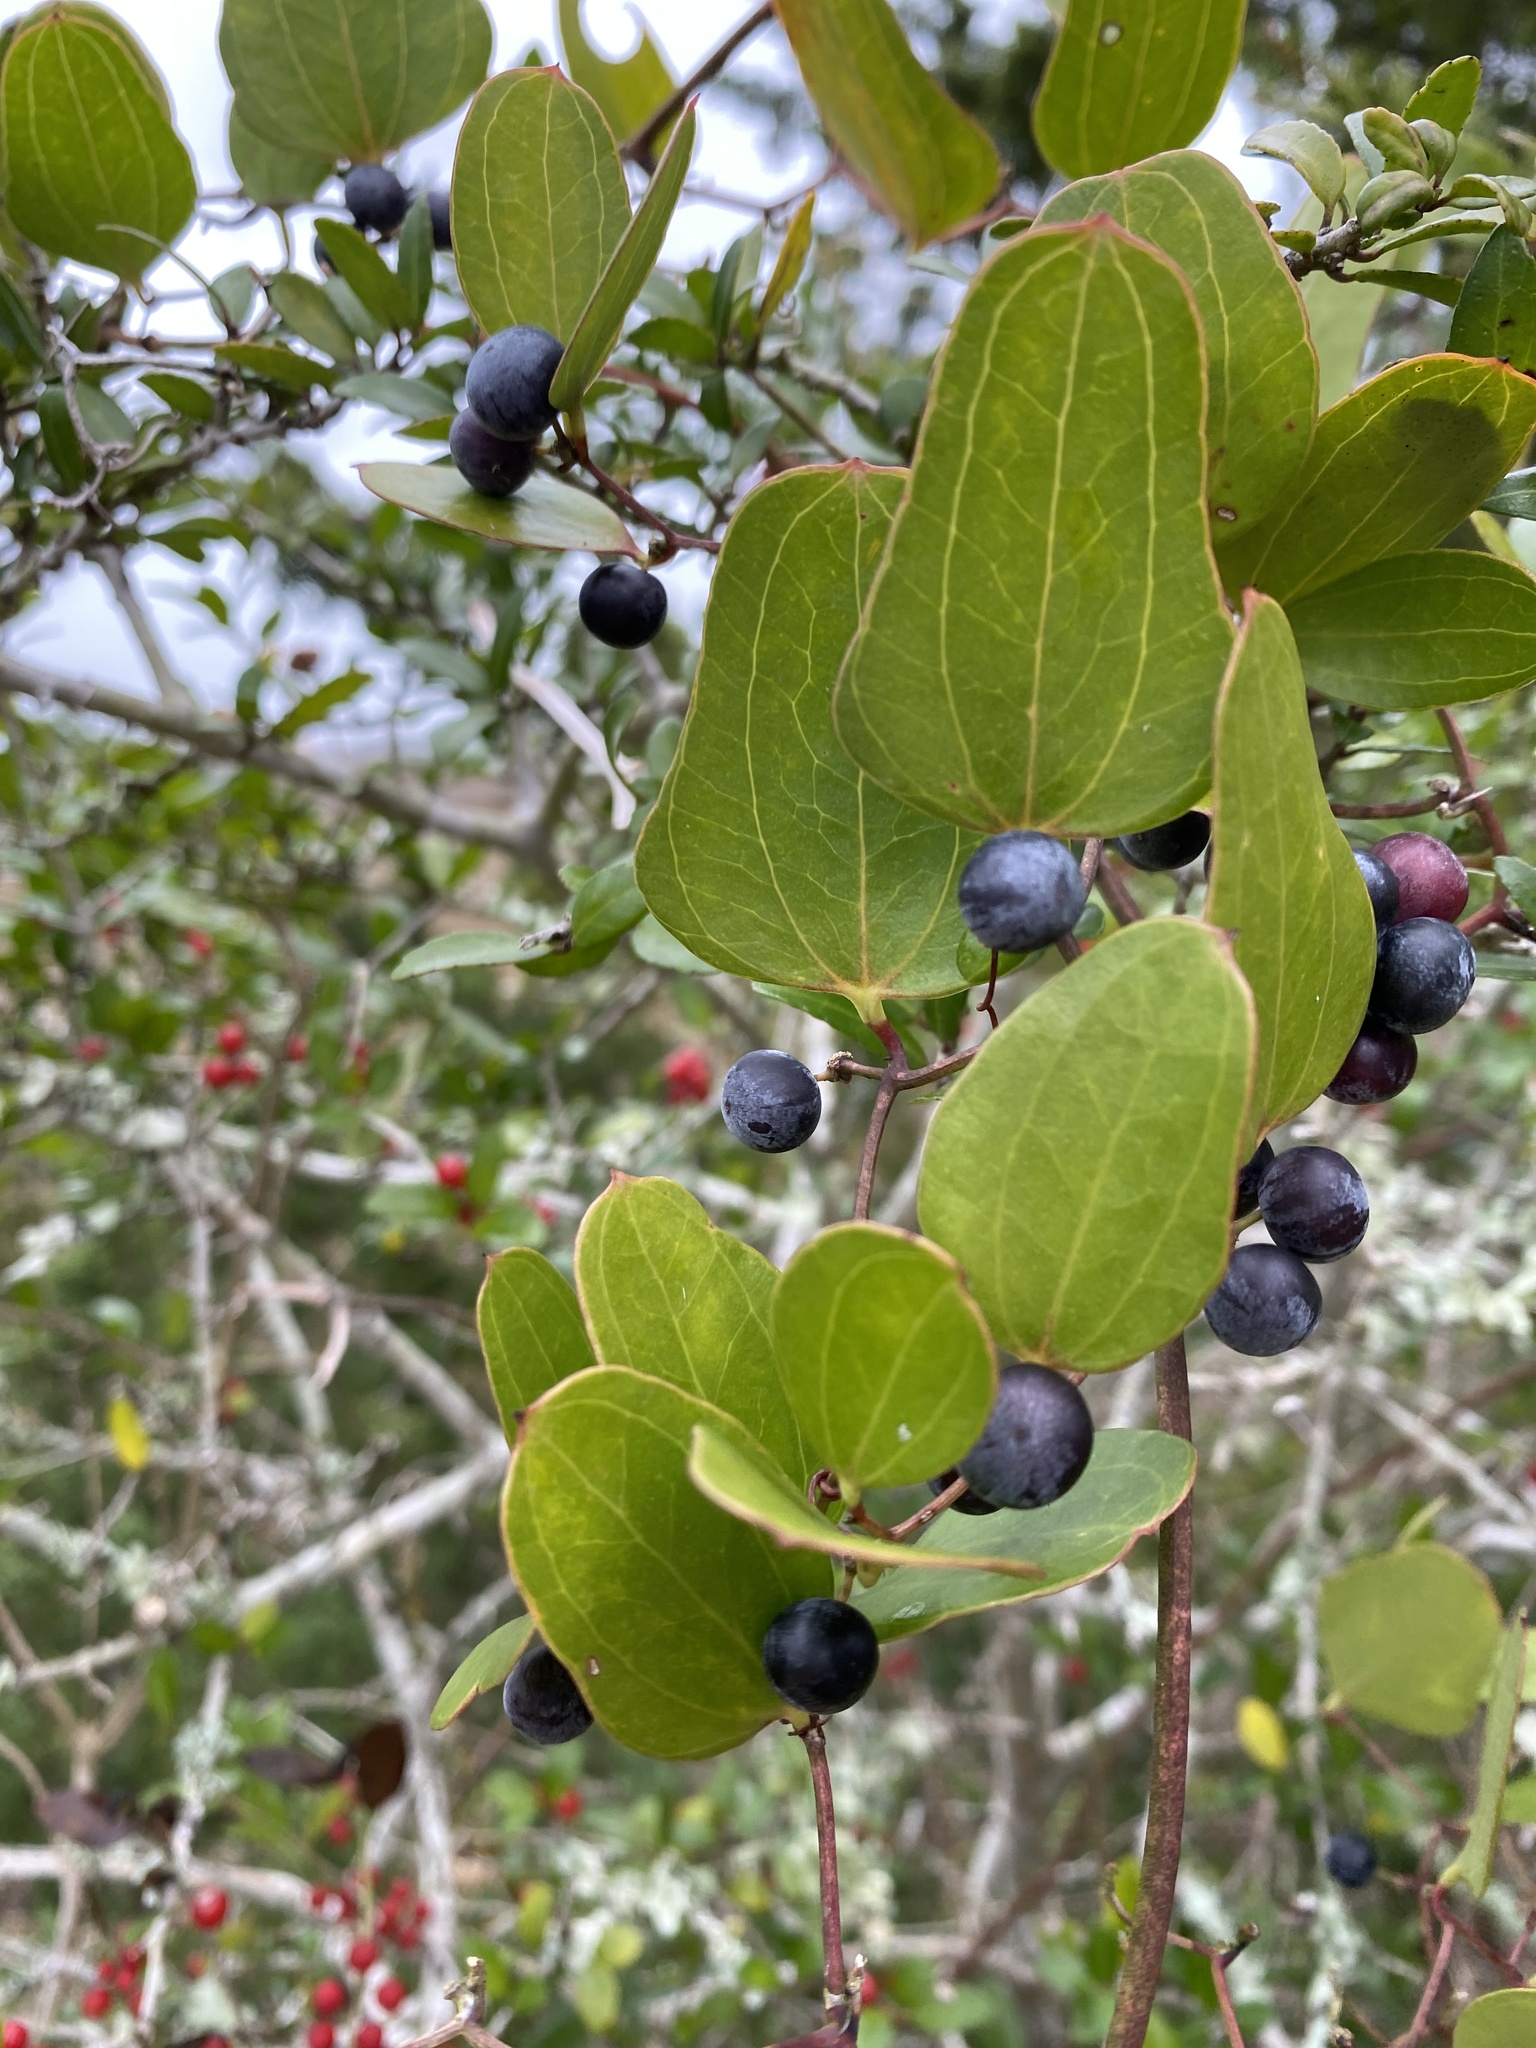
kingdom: Plantae
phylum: Tracheophyta
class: Liliopsida
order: Liliales
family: Smilacaceae
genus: Smilax
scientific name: Smilax auriculata
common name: Wild bamboo
